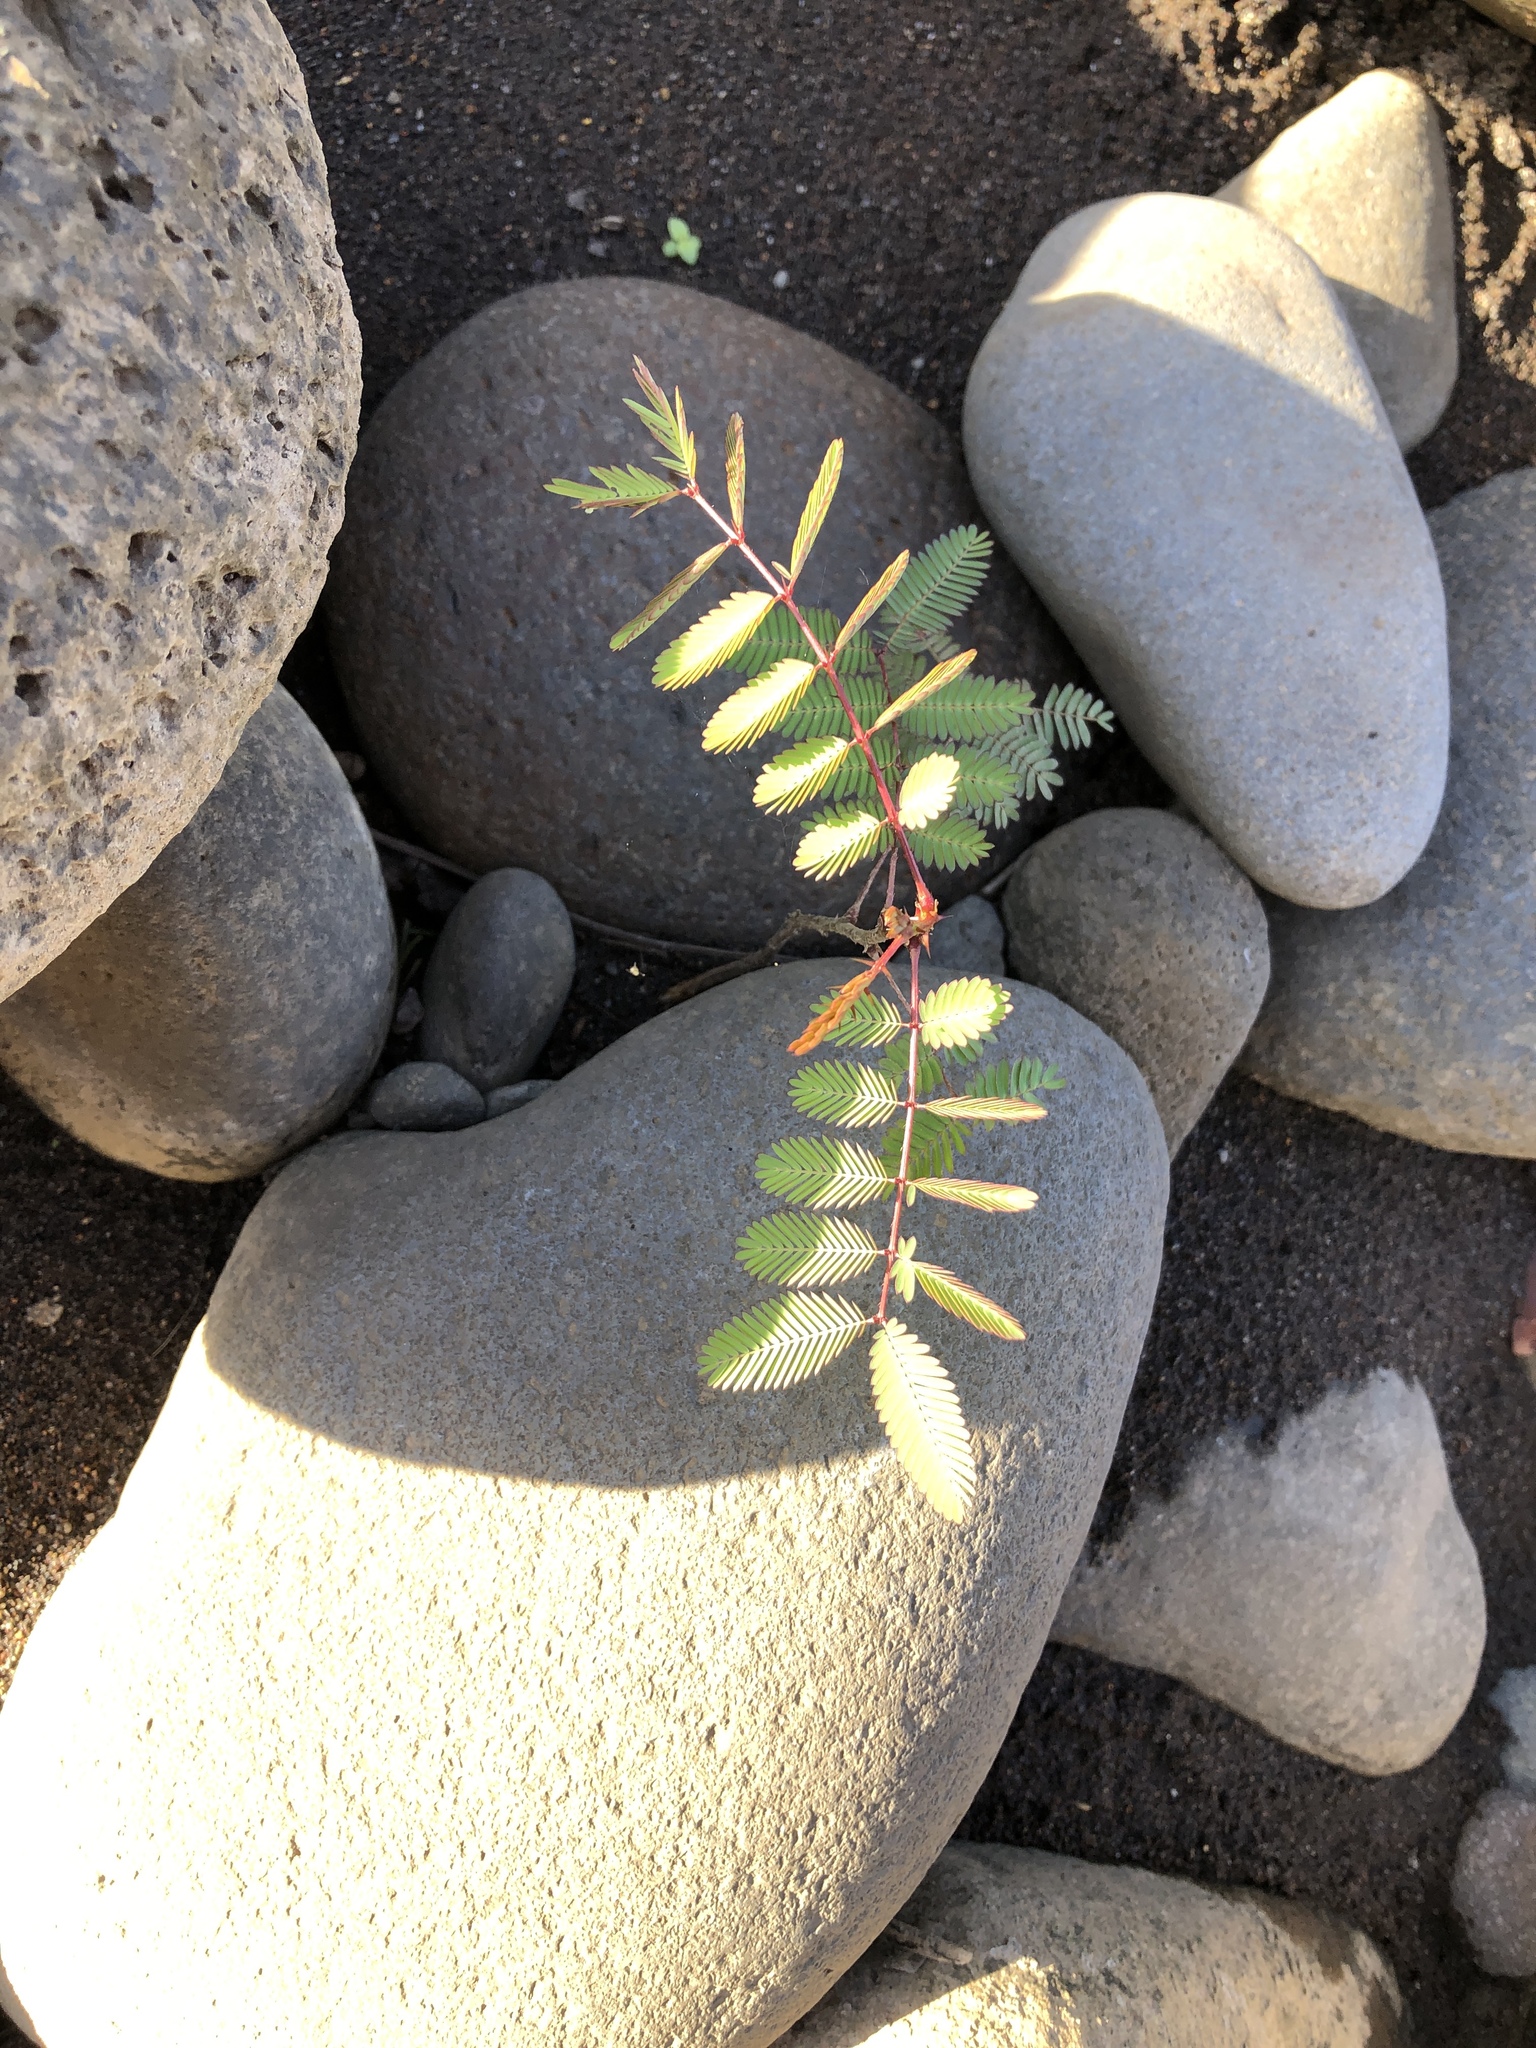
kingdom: Plantae
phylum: Tracheophyta
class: Magnoliopsida
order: Fabales
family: Fabaceae
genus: Mimosa
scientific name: Mimosa pudica
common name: Sensitive plant
